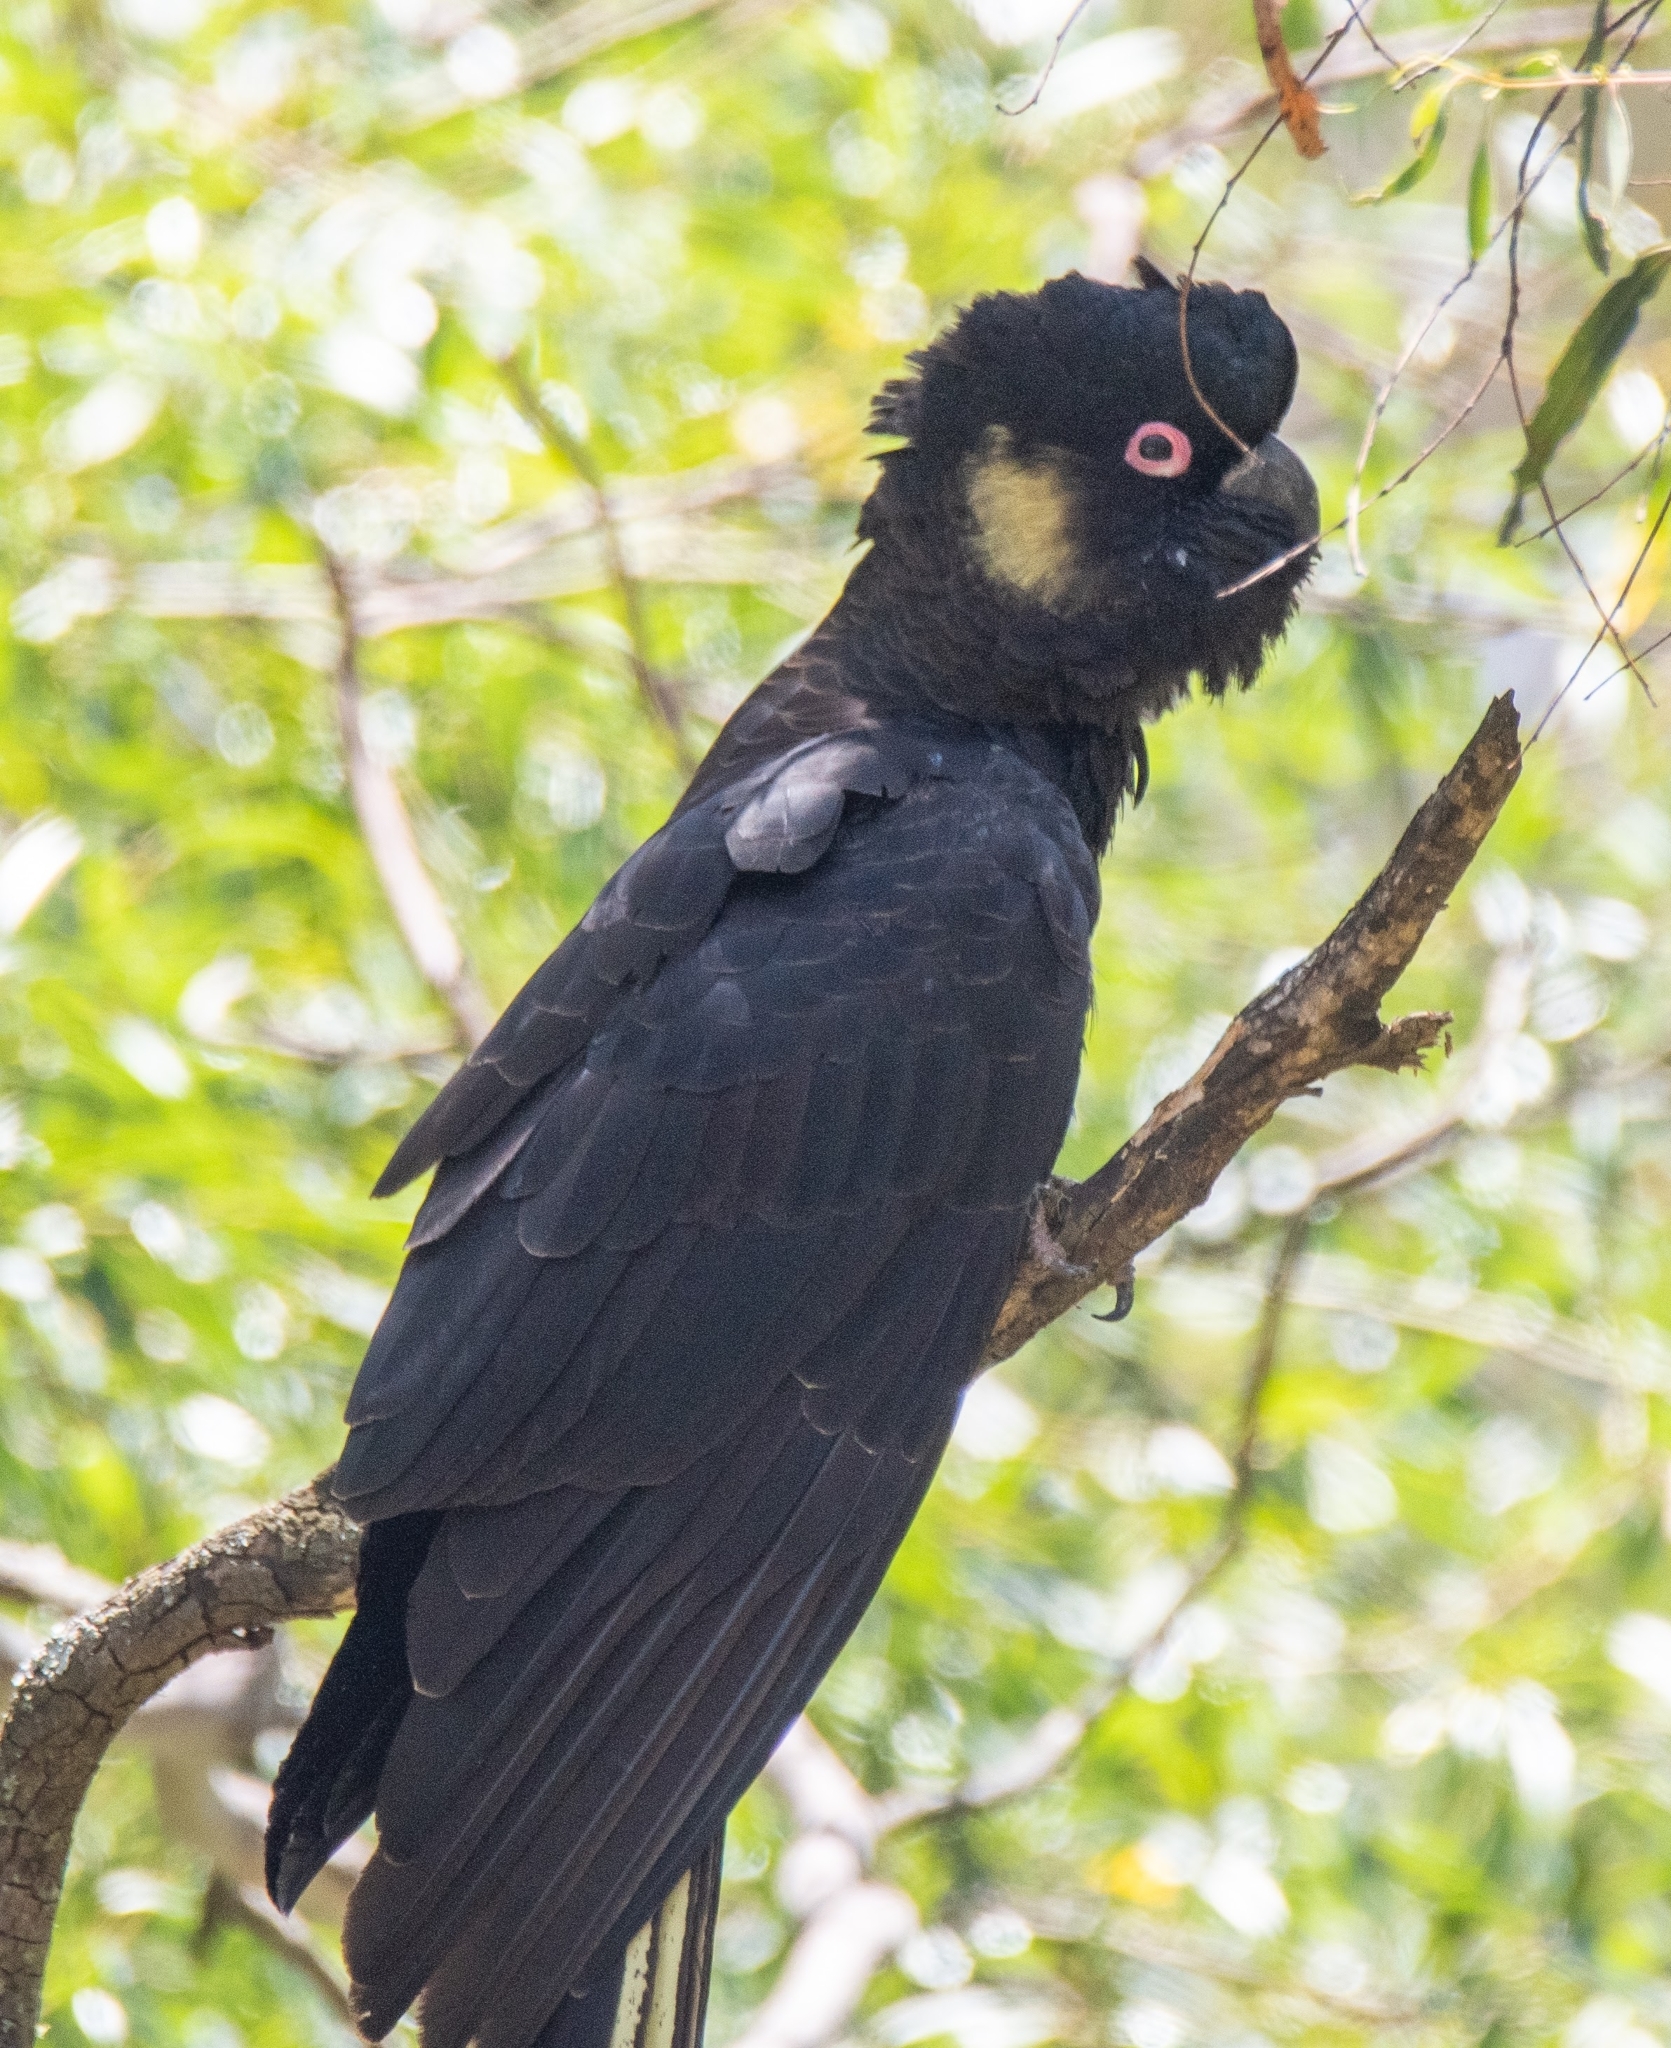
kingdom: Animalia
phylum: Chordata
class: Aves
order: Psittaciformes
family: Cacatuidae
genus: Zanda
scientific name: Zanda funerea
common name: Yellow-tailed black-cockatoo
